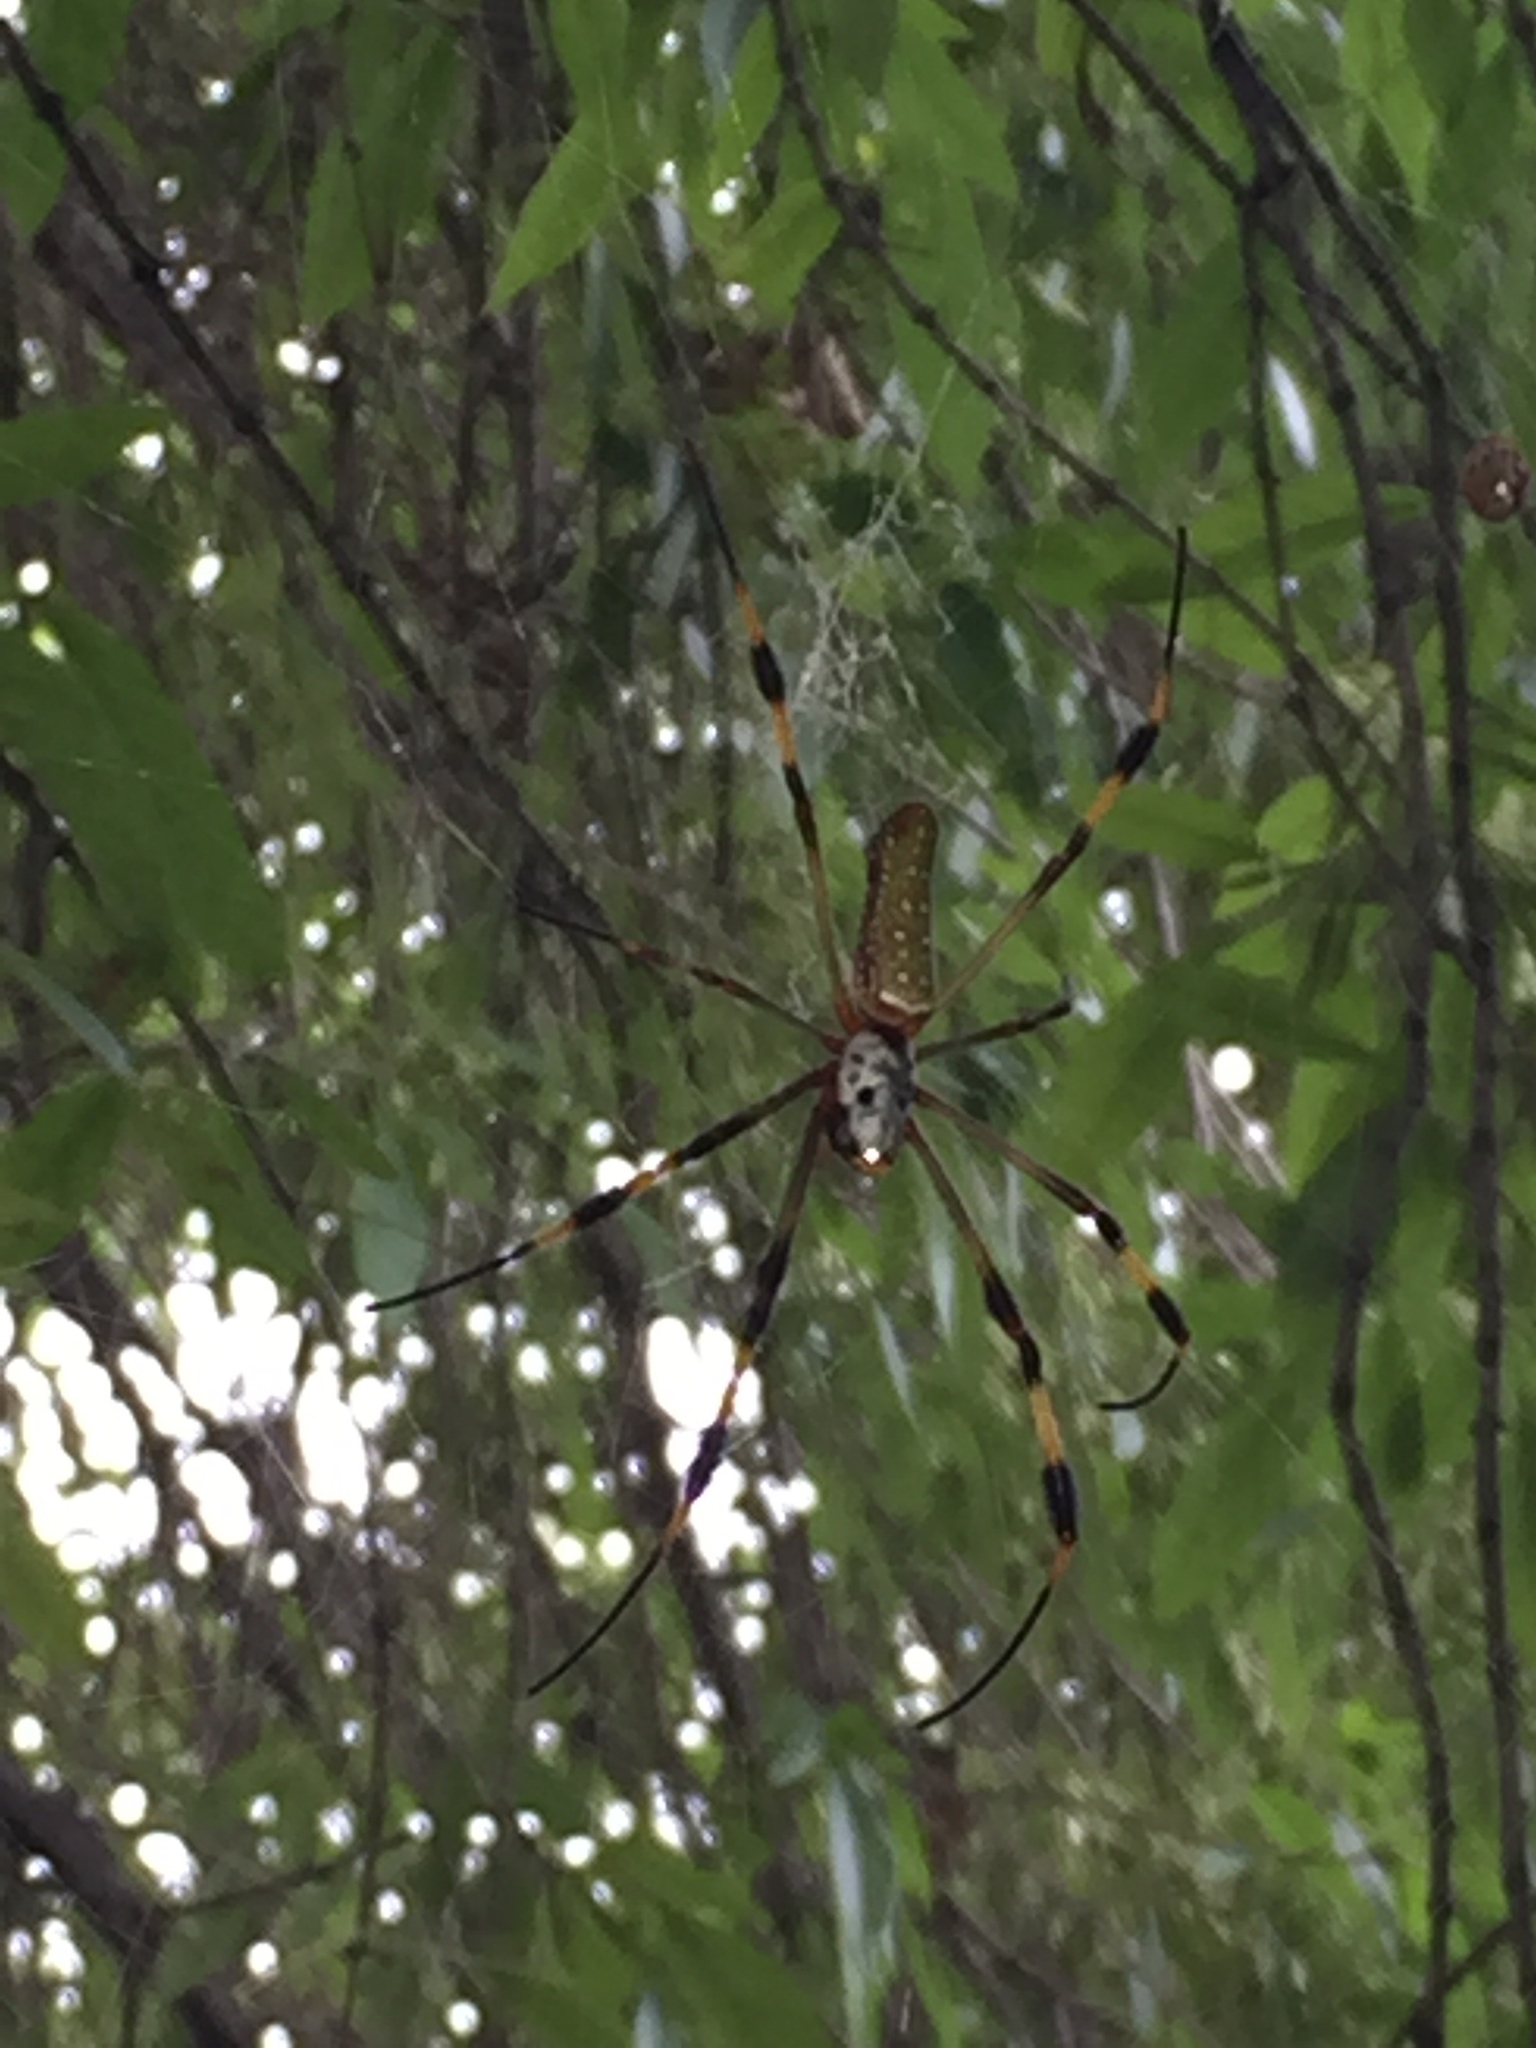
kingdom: Animalia
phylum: Arthropoda
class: Arachnida
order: Araneae
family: Araneidae
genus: Trichonephila
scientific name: Trichonephila clavipes
